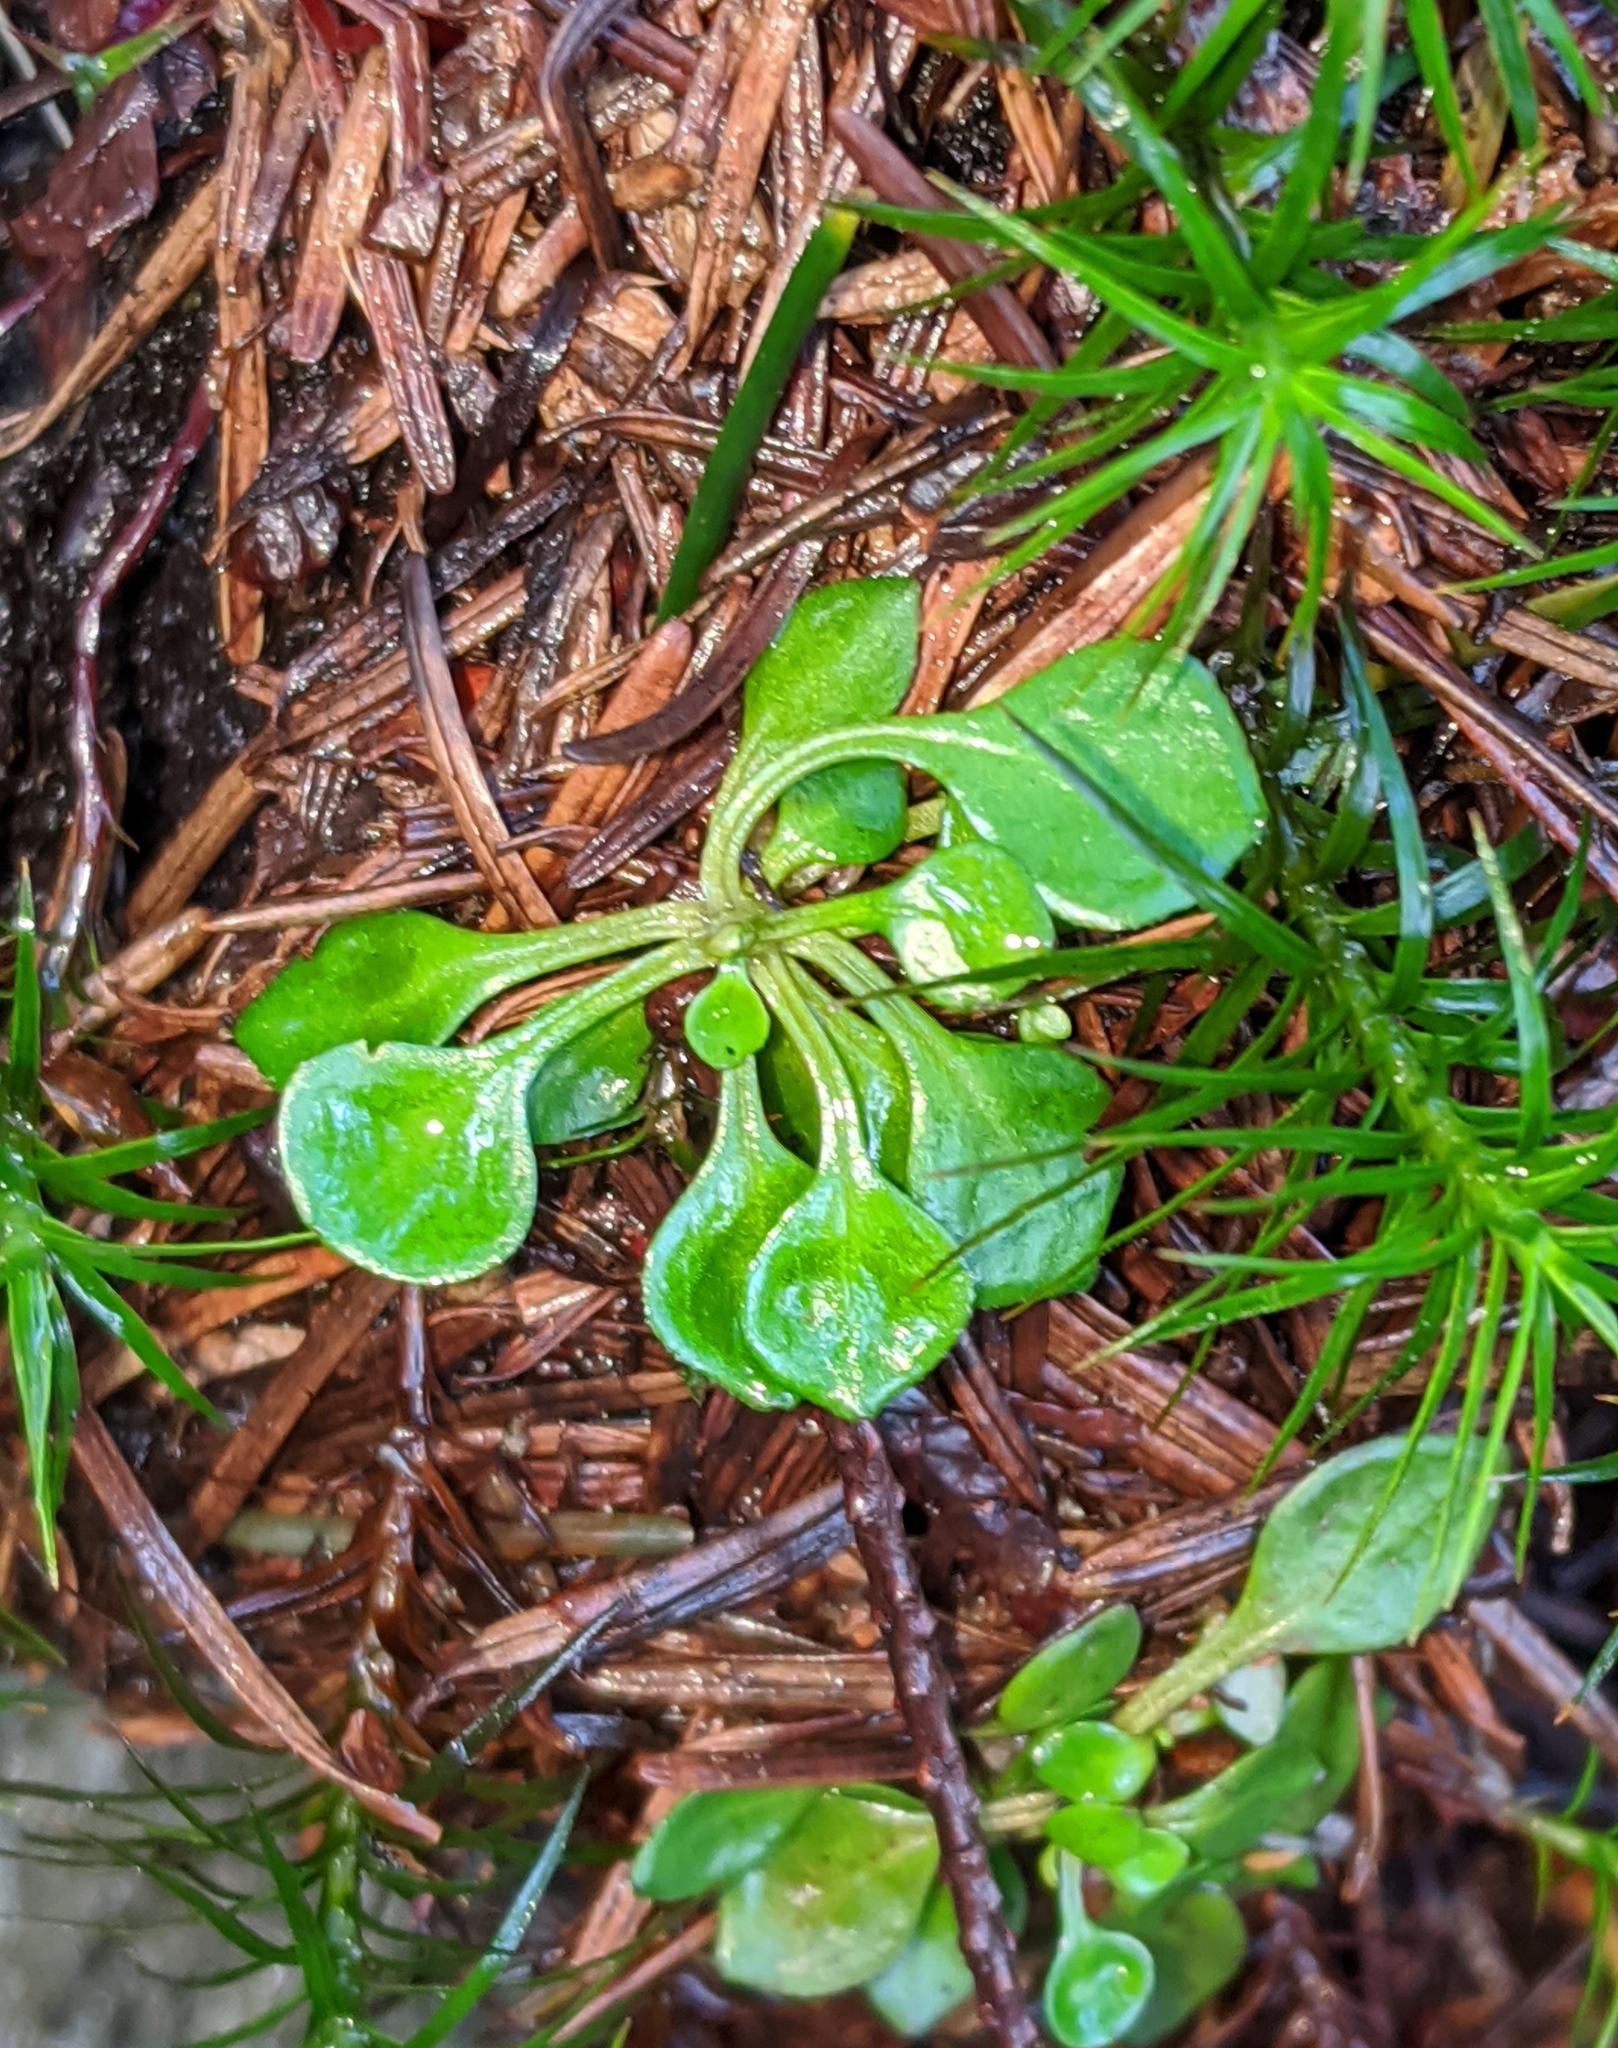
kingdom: Plantae
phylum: Tracheophyta
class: Magnoliopsida
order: Caryophyllales
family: Montiaceae
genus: Montia
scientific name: Montia parvifolia
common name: Small-leaved blinks
